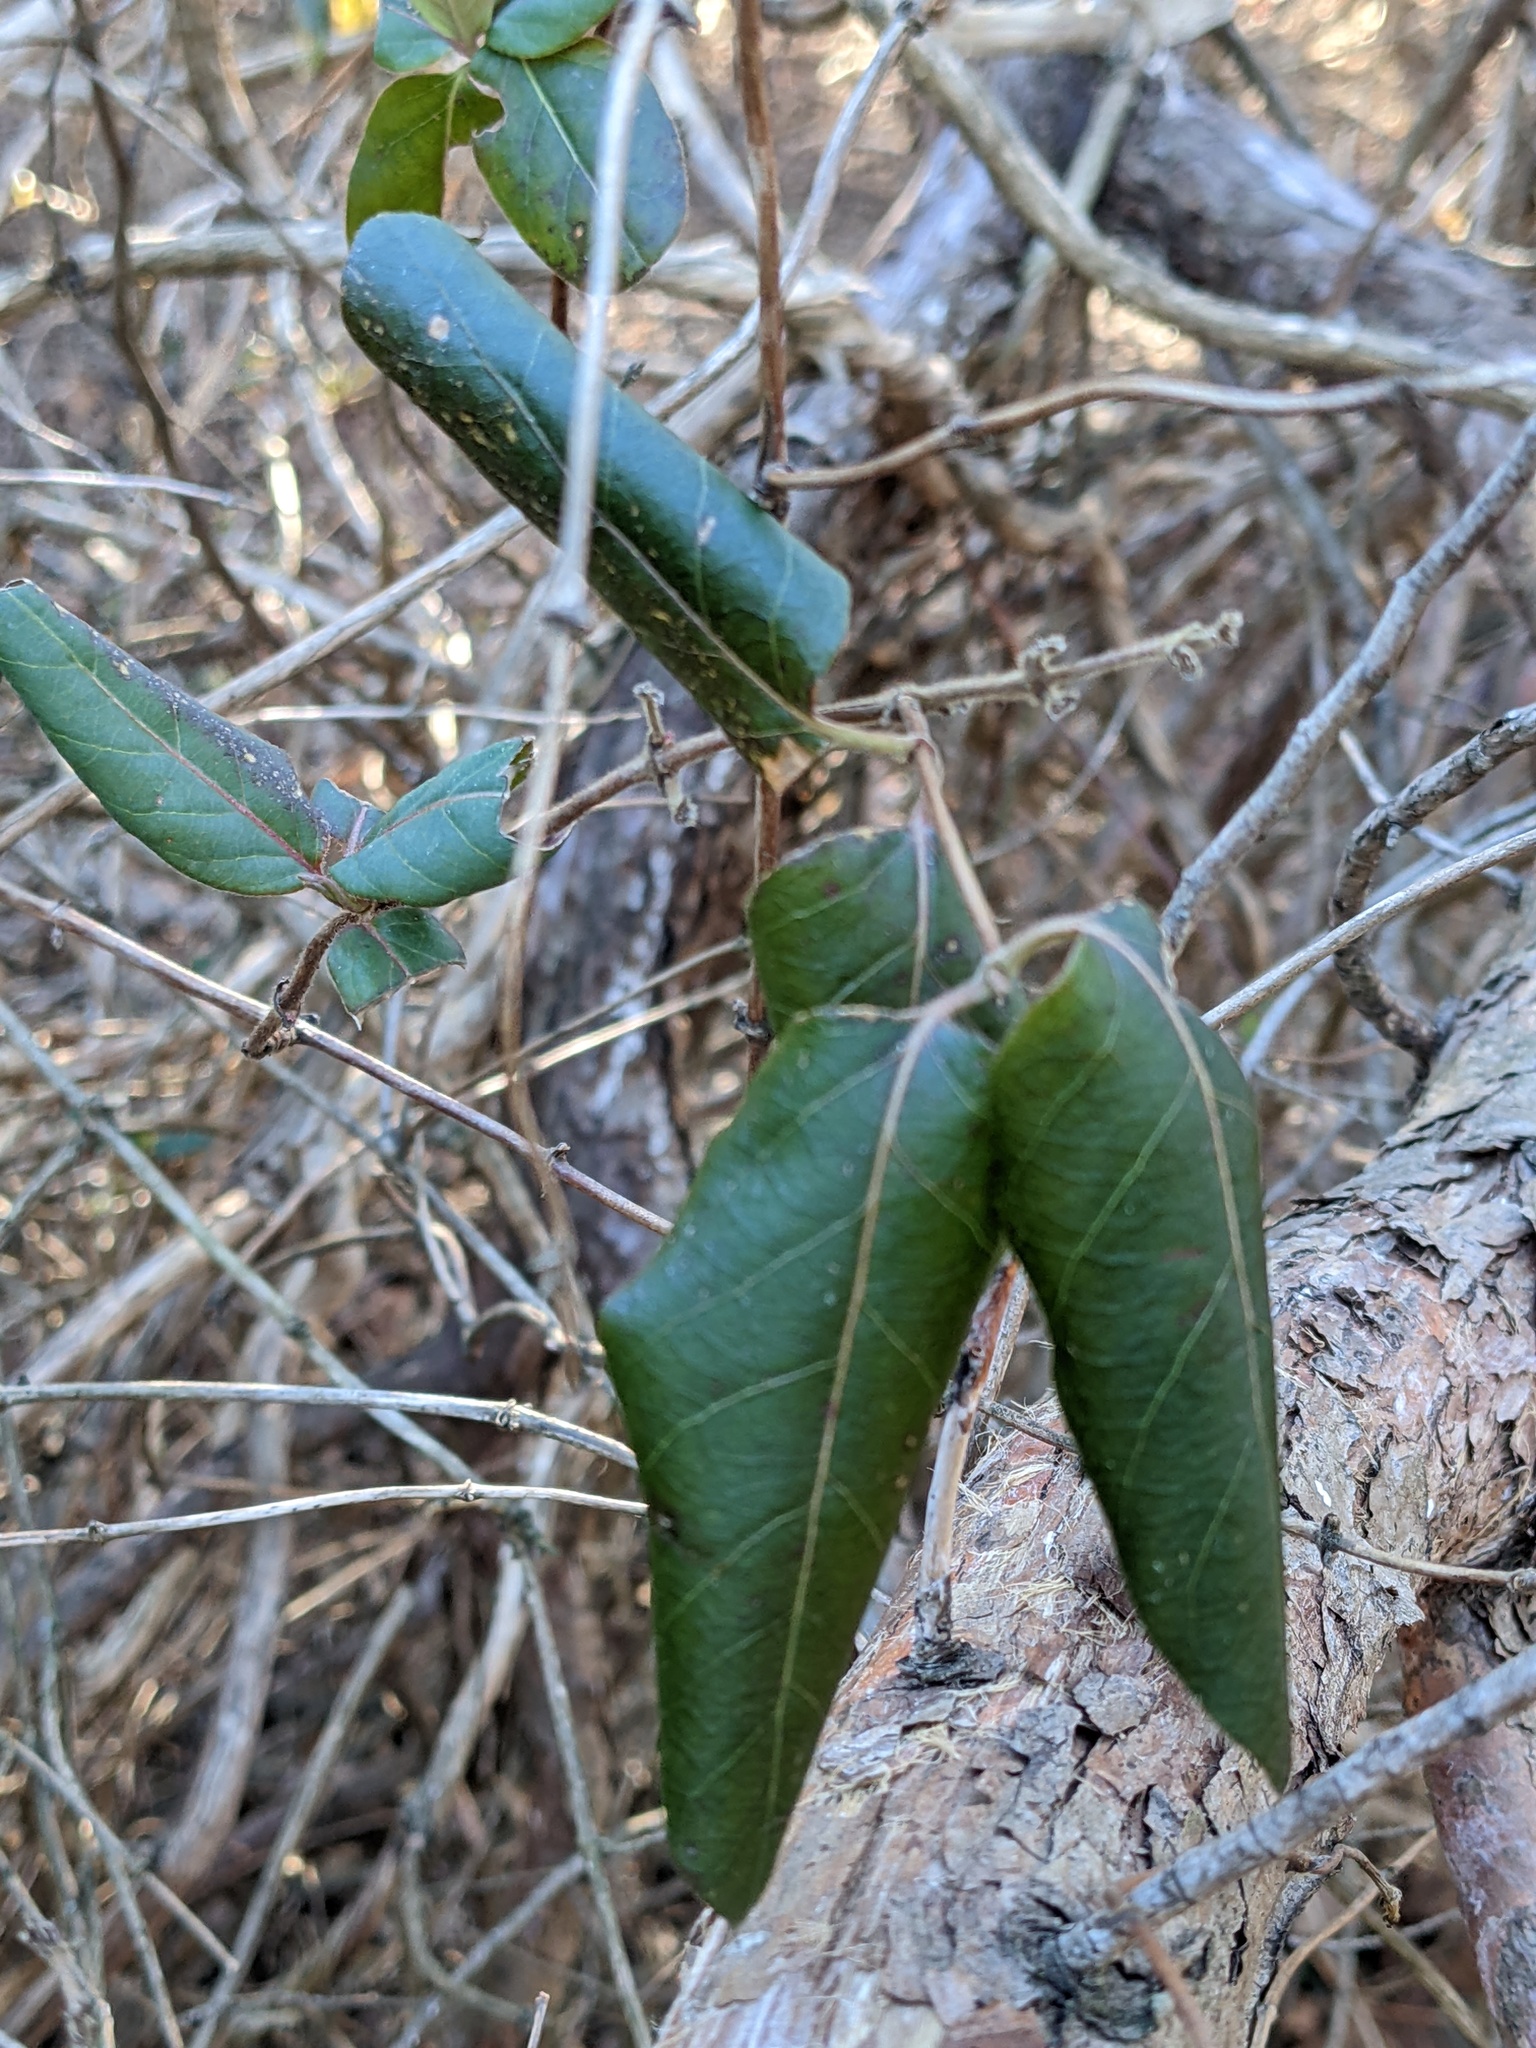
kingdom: Plantae
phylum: Tracheophyta
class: Magnoliopsida
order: Dipsacales
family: Caprifoliaceae
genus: Lonicera
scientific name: Lonicera japonica
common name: Japanese honeysuckle
